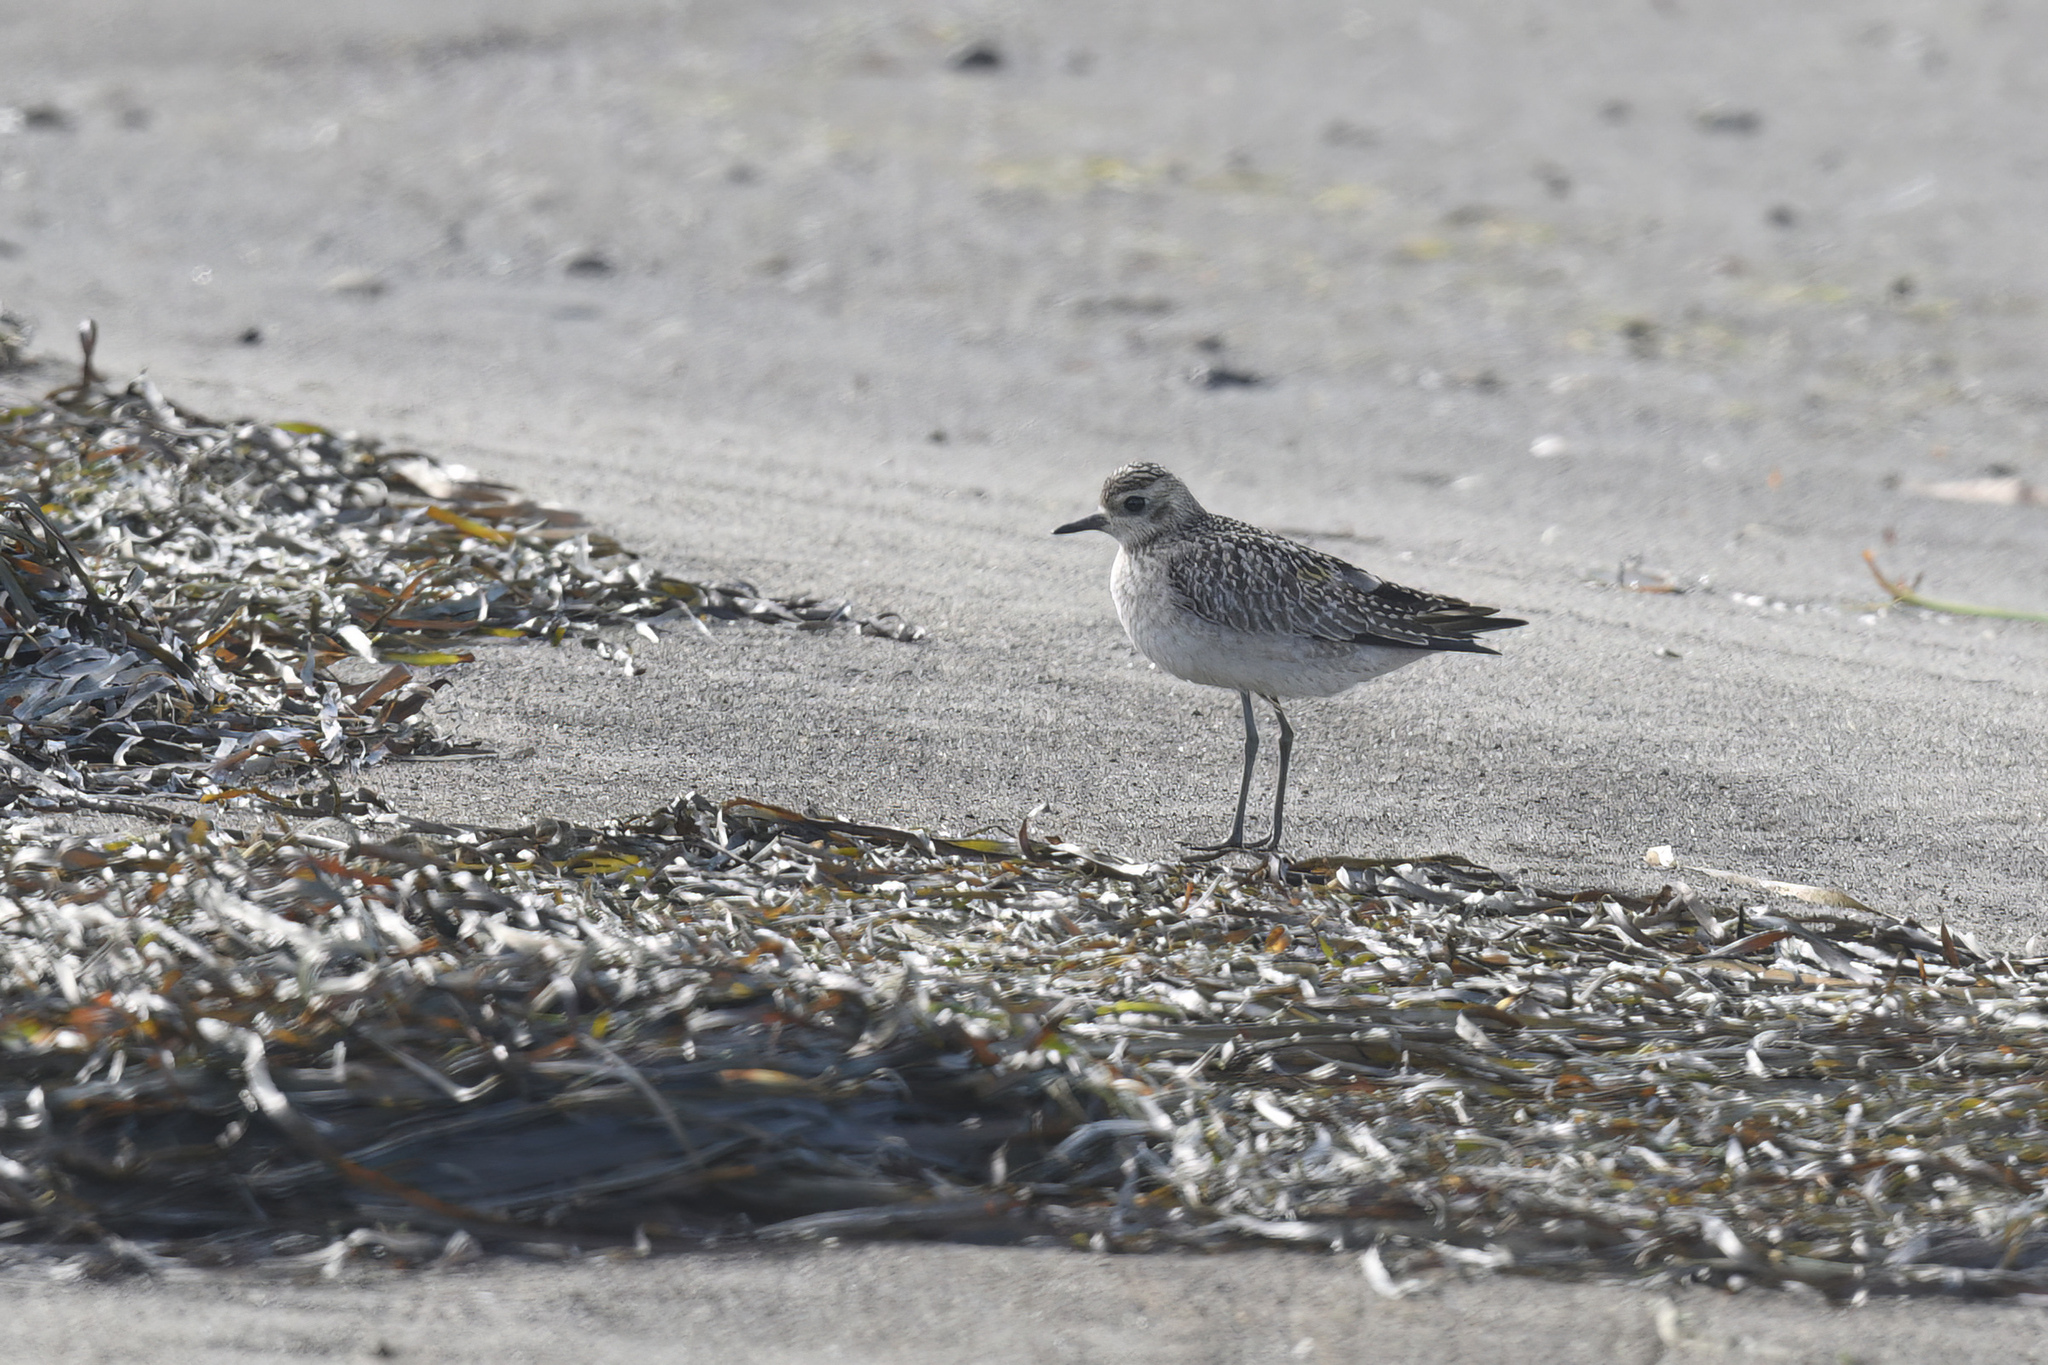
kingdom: Animalia
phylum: Chordata
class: Aves
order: Charadriiformes
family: Charadriidae
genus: Pluvialis
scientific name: Pluvialis fulva
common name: Pacific golden plover
